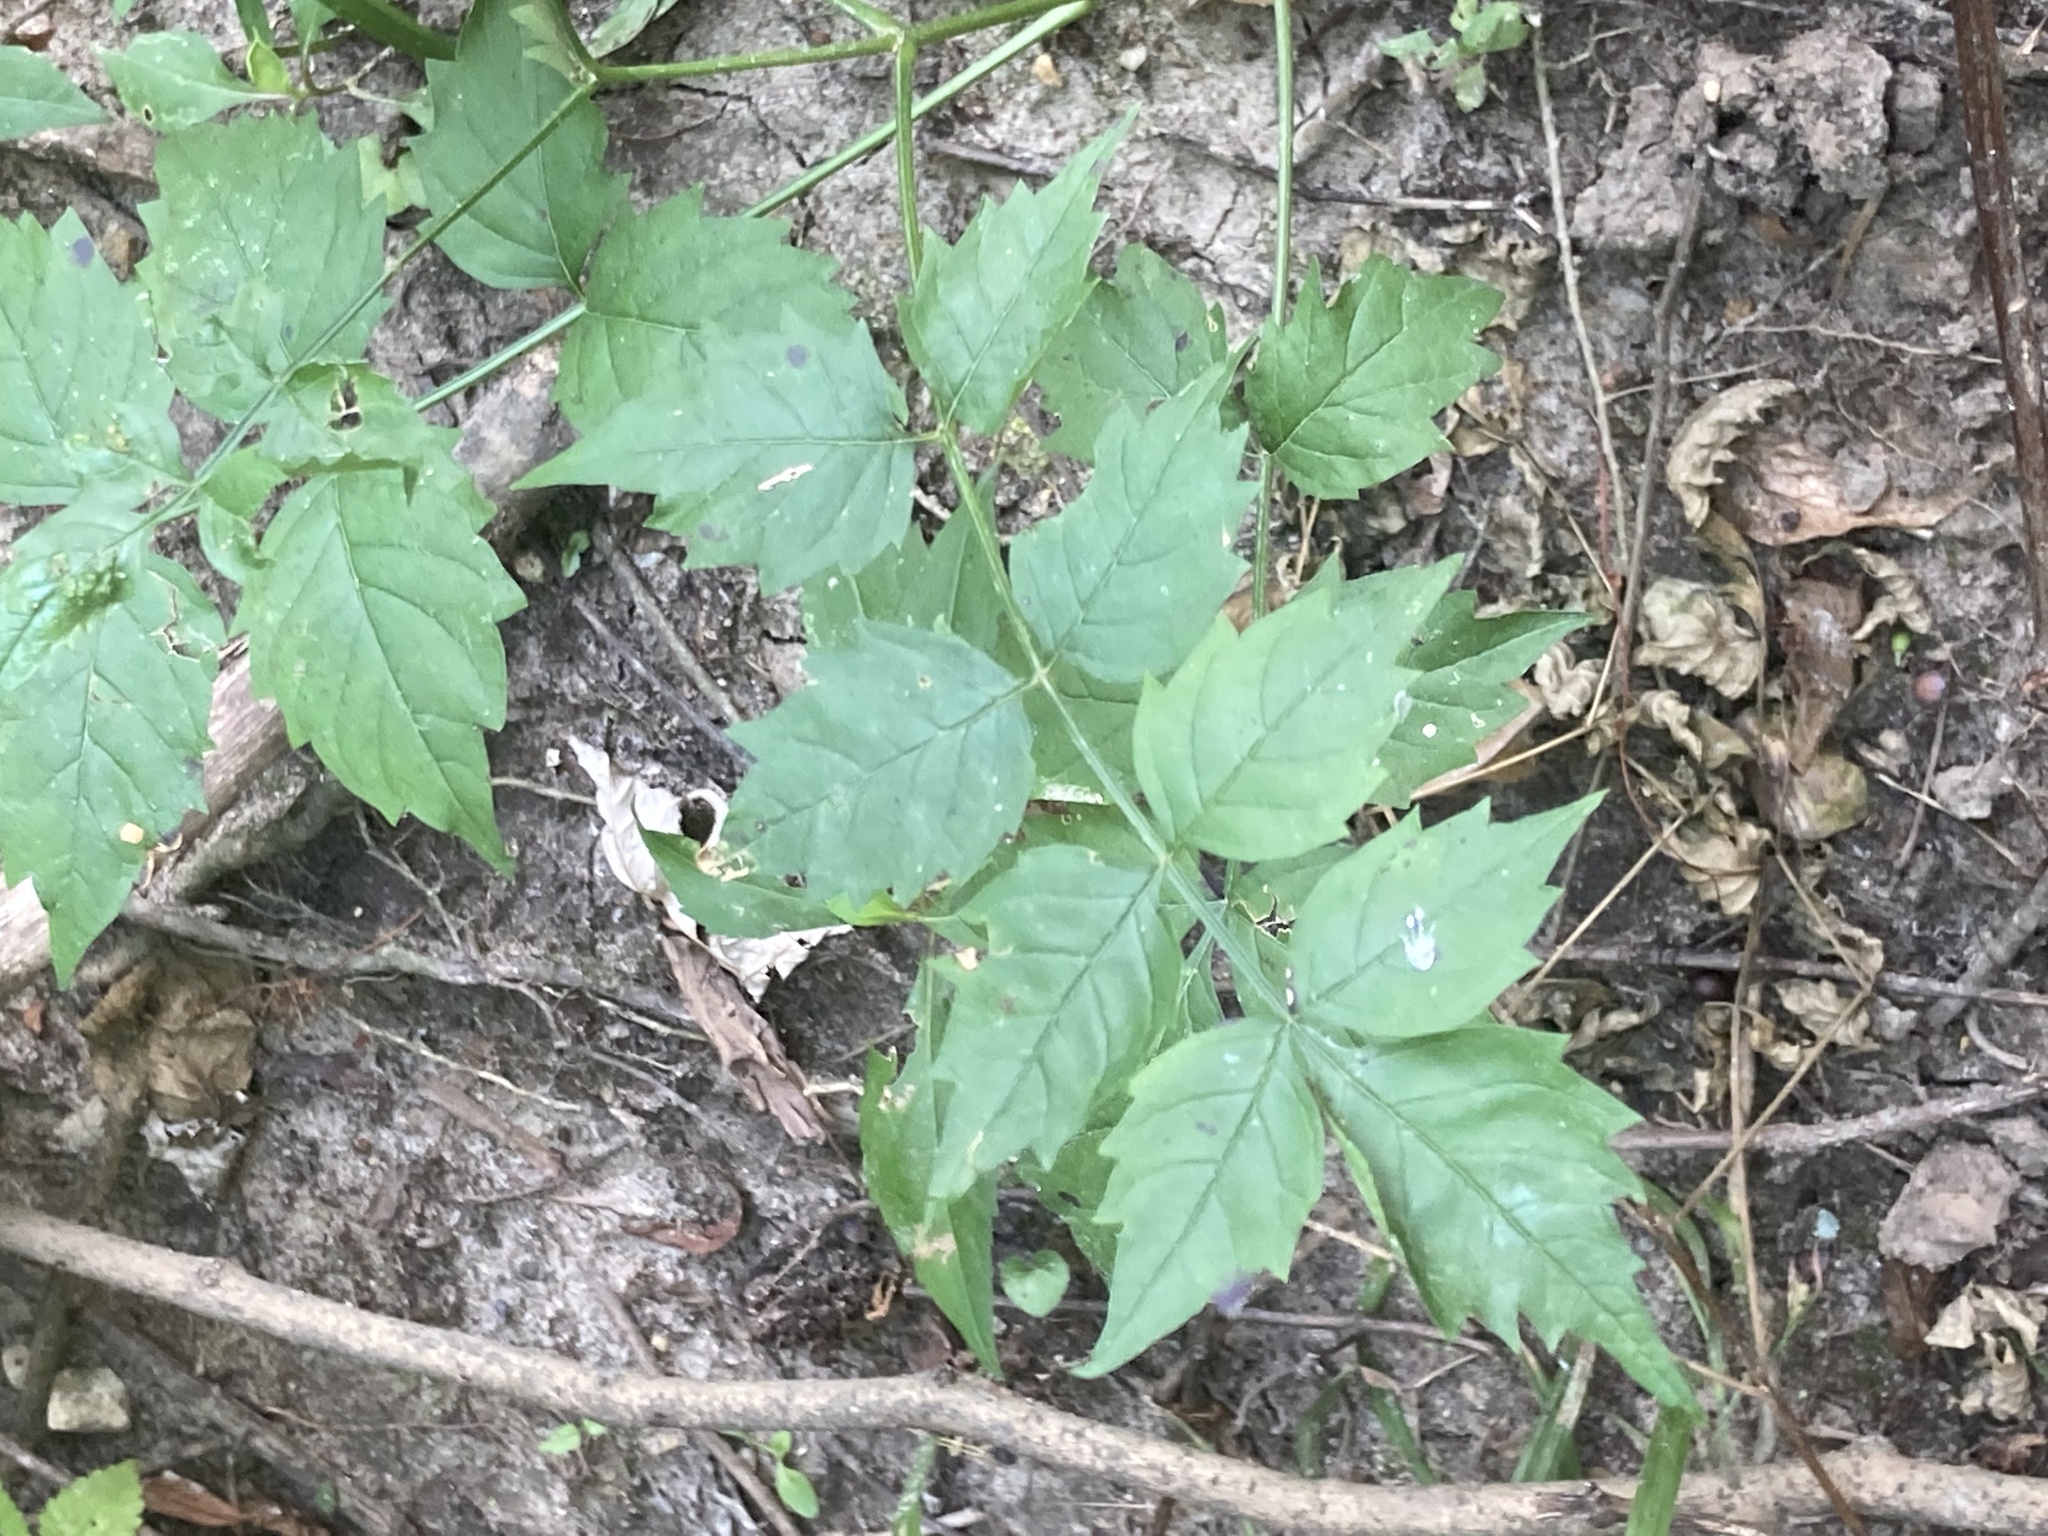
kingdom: Plantae
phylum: Tracheophyta
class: Magnoliopsida
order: Lamiales
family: Bignoniaceae
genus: Campsis
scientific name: Campsis radicans
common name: Trumpet-creeper
